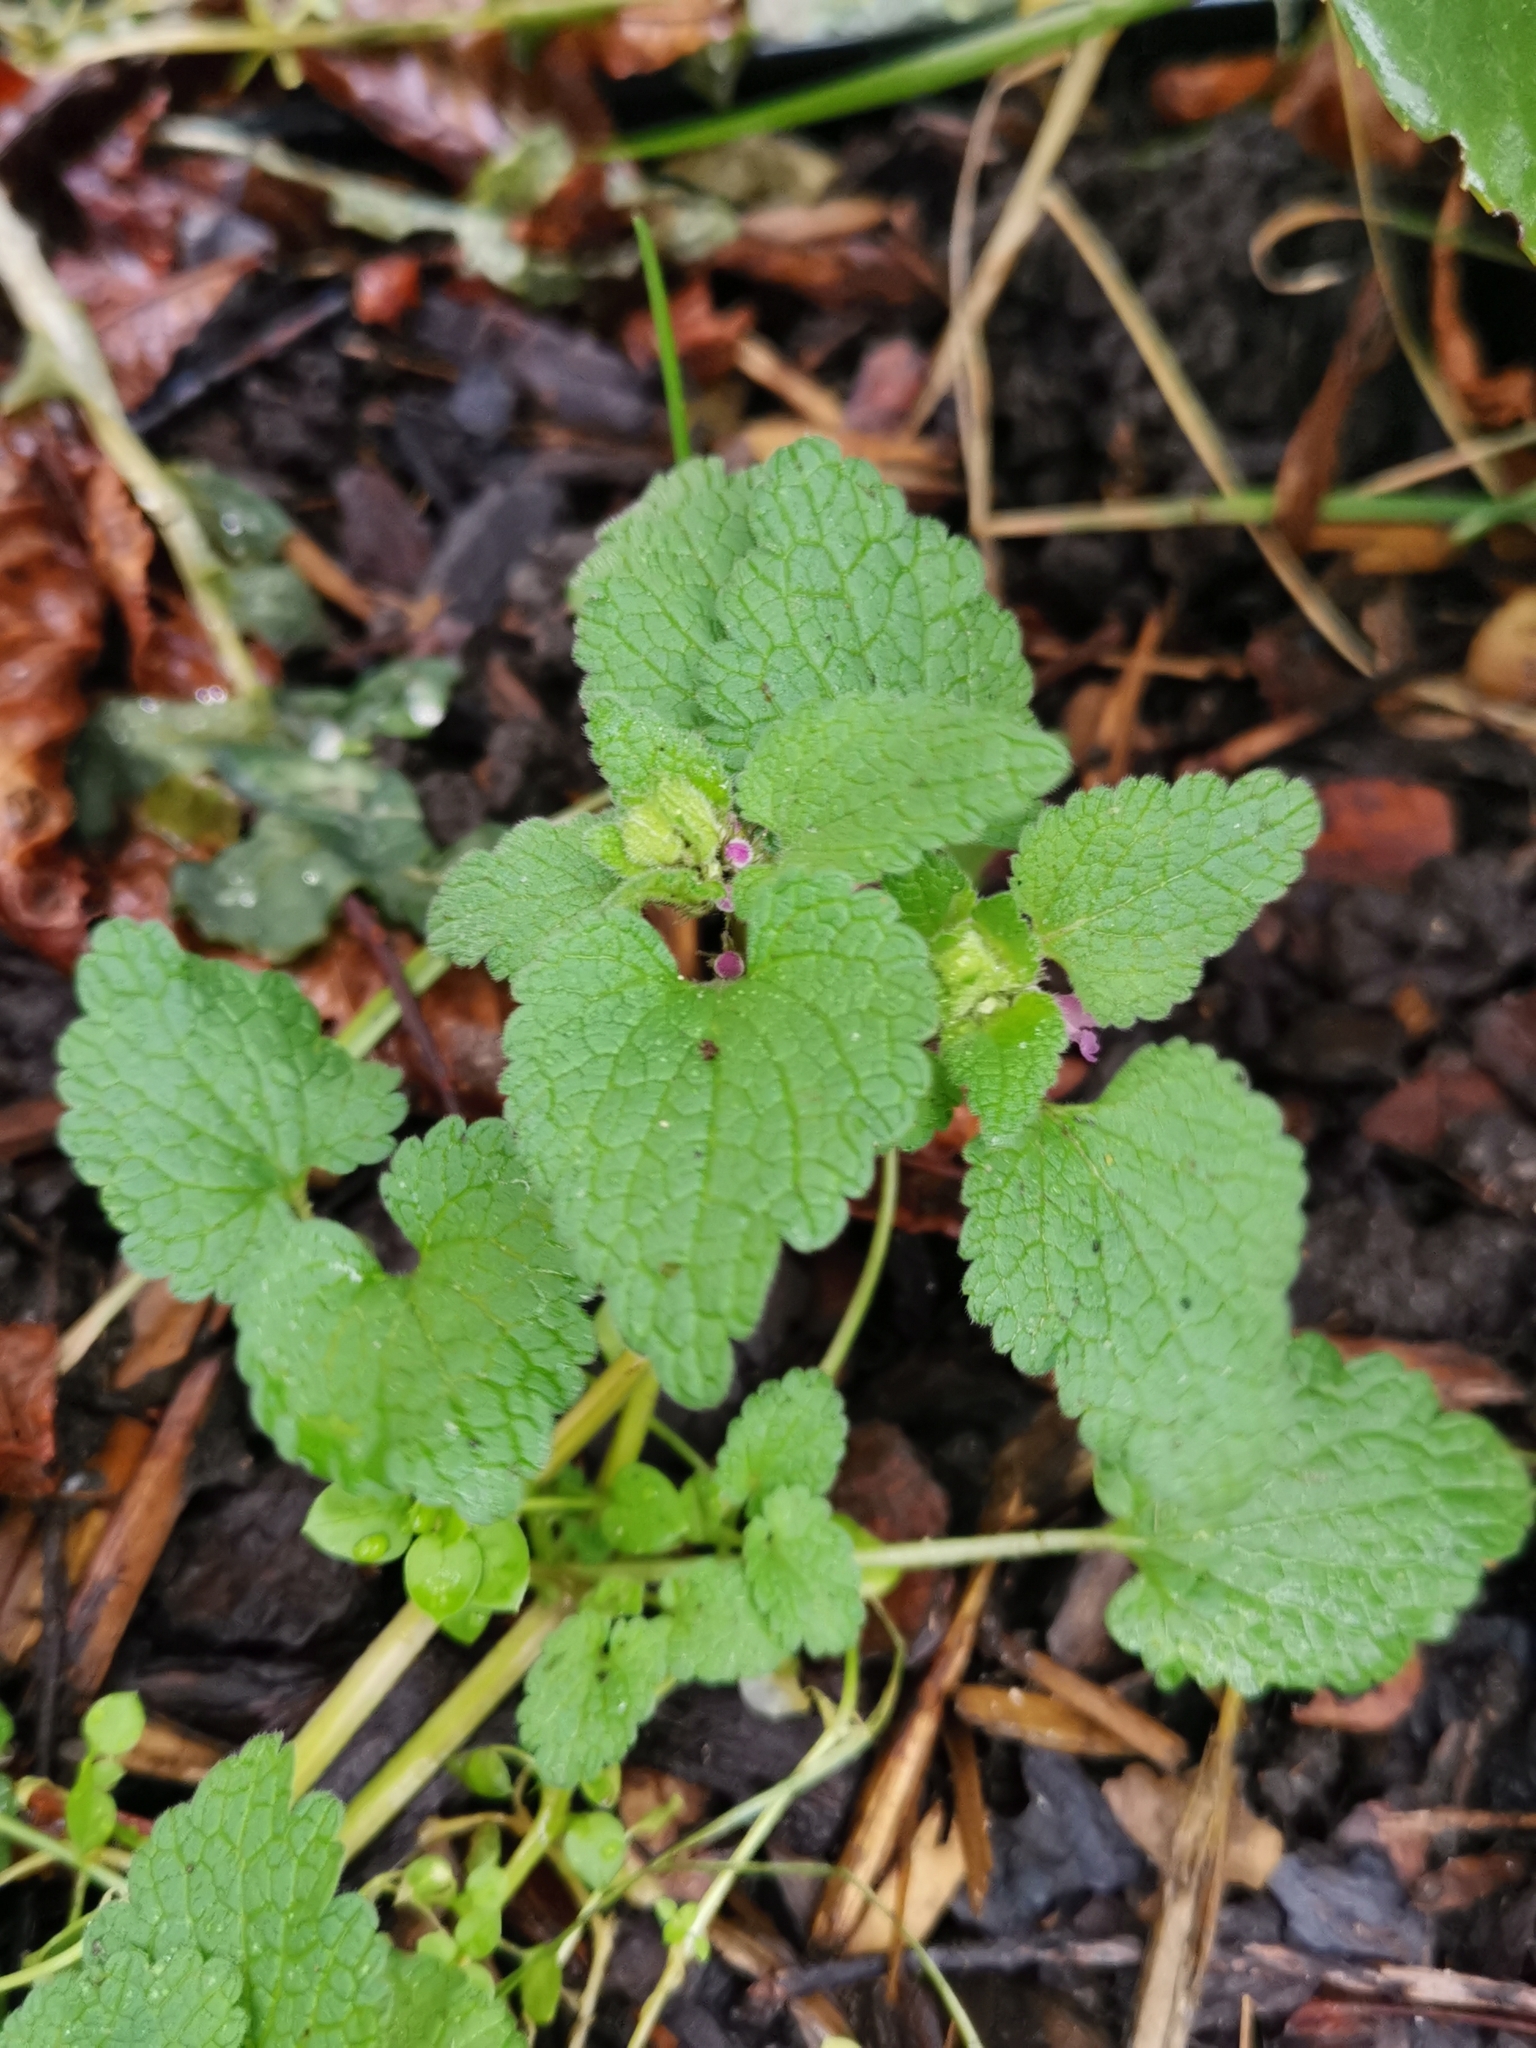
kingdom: Plantae
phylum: Tracheophyta
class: Magnoliopsida
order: Lamiales
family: Lamiaceae
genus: Lamium
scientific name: Lamium purpureum
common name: Red dead-nettle
